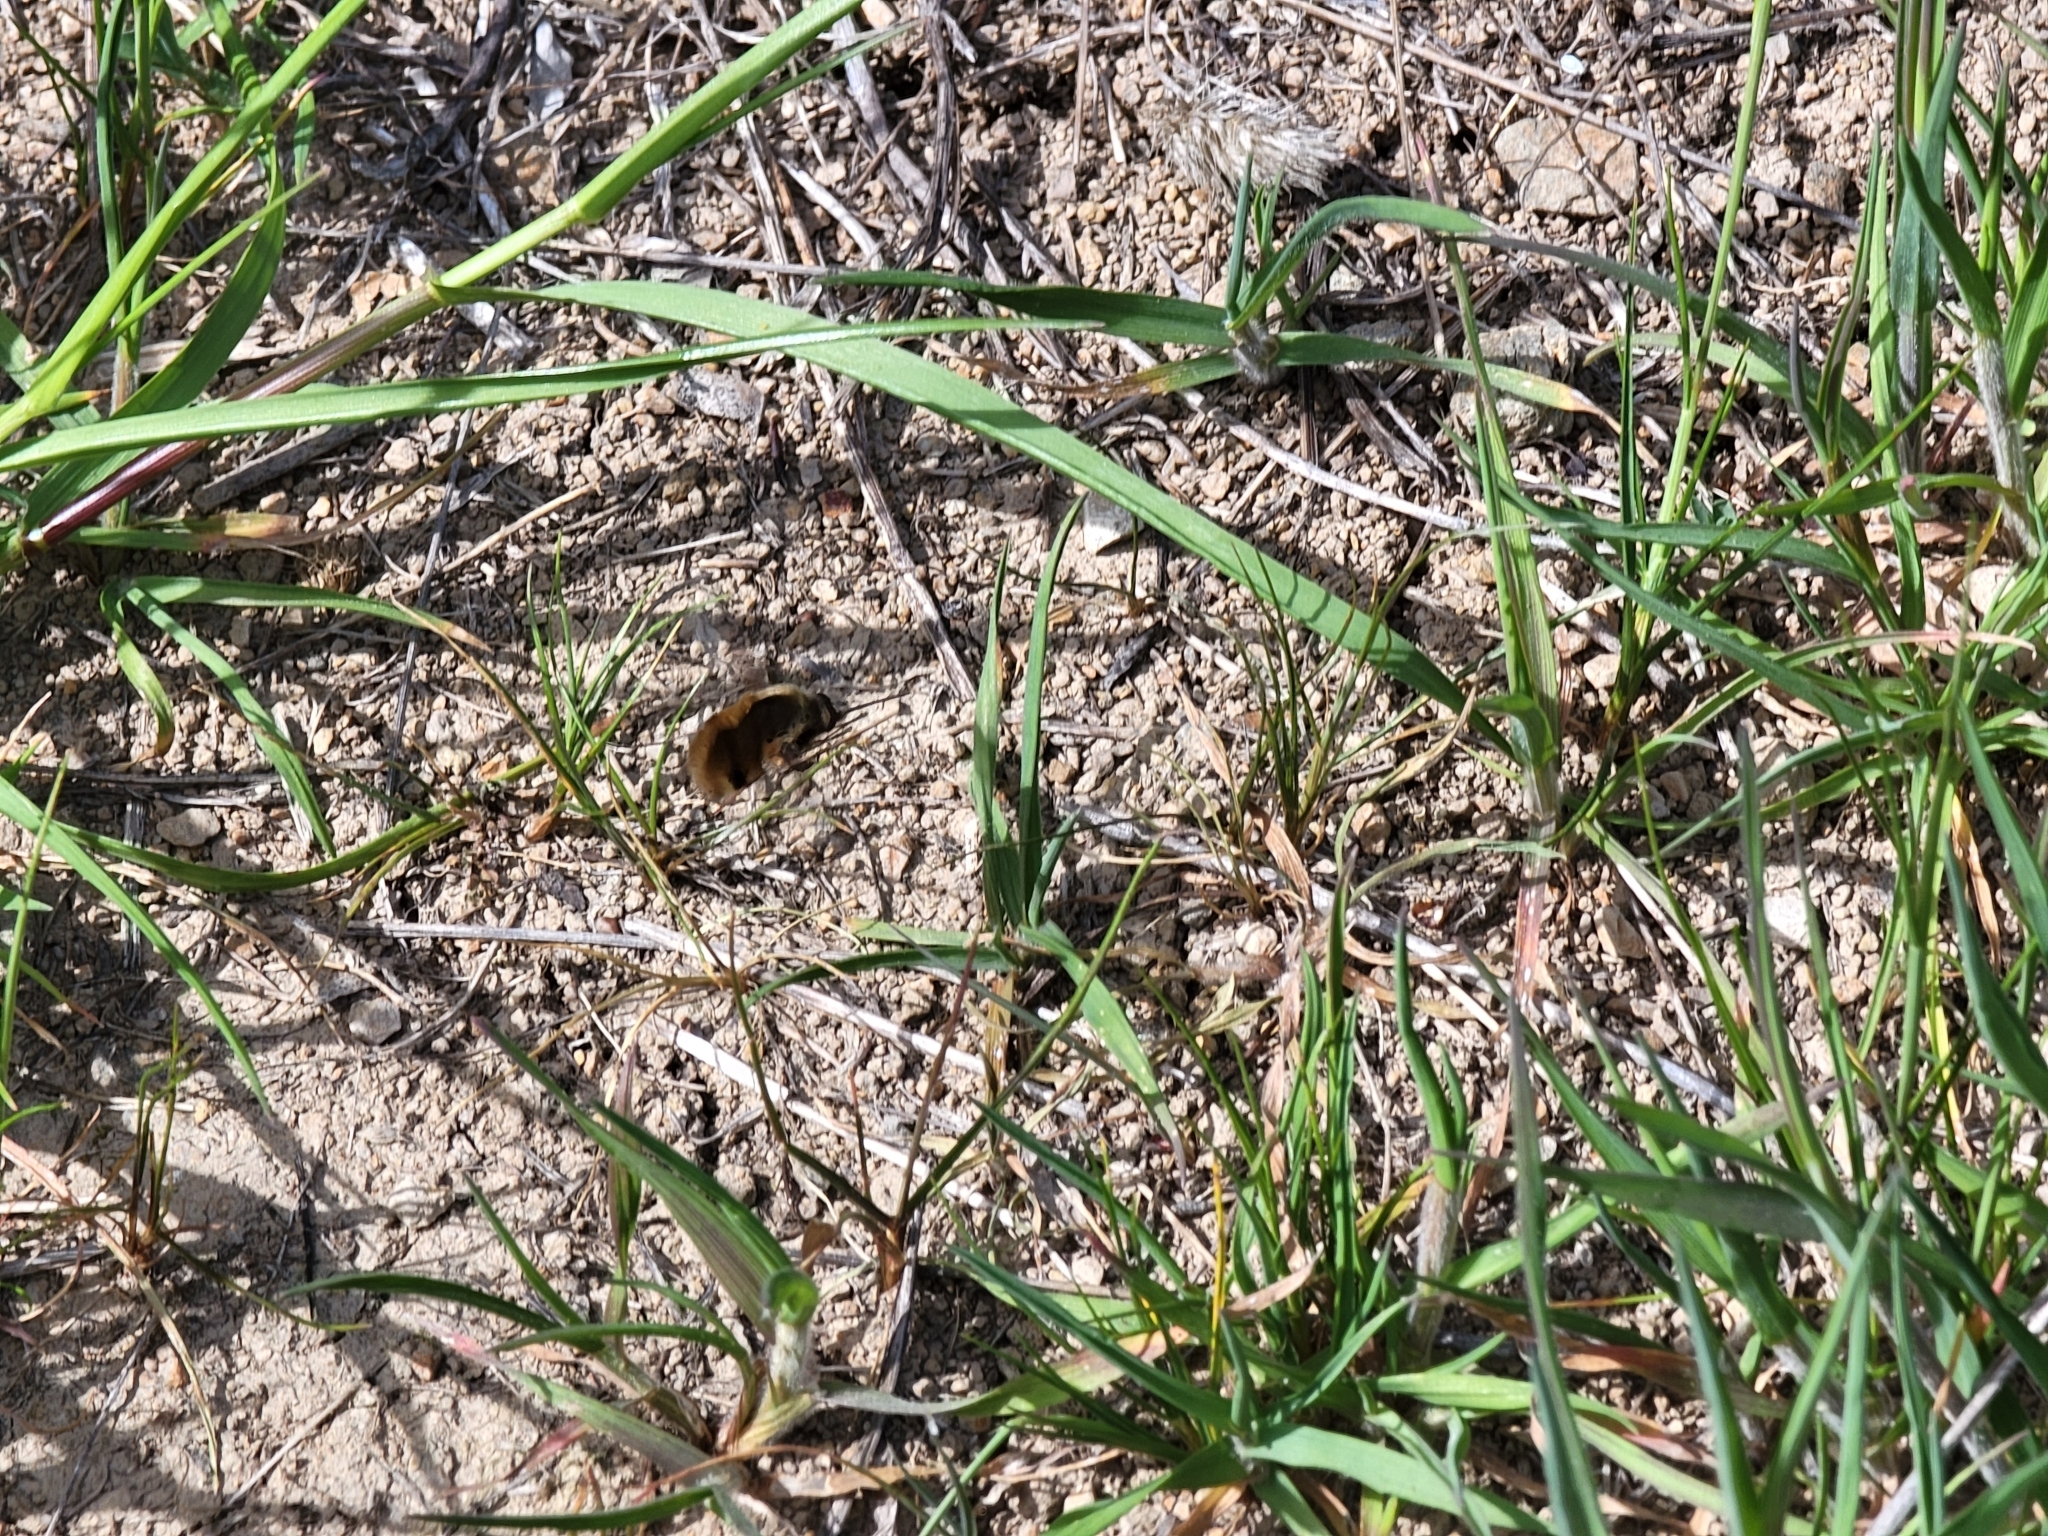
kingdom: Animalia
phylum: Arthropoda
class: Insecta
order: Diptera
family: Bombyliidae
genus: Bombylius
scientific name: Bombylius major
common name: Bee fly
